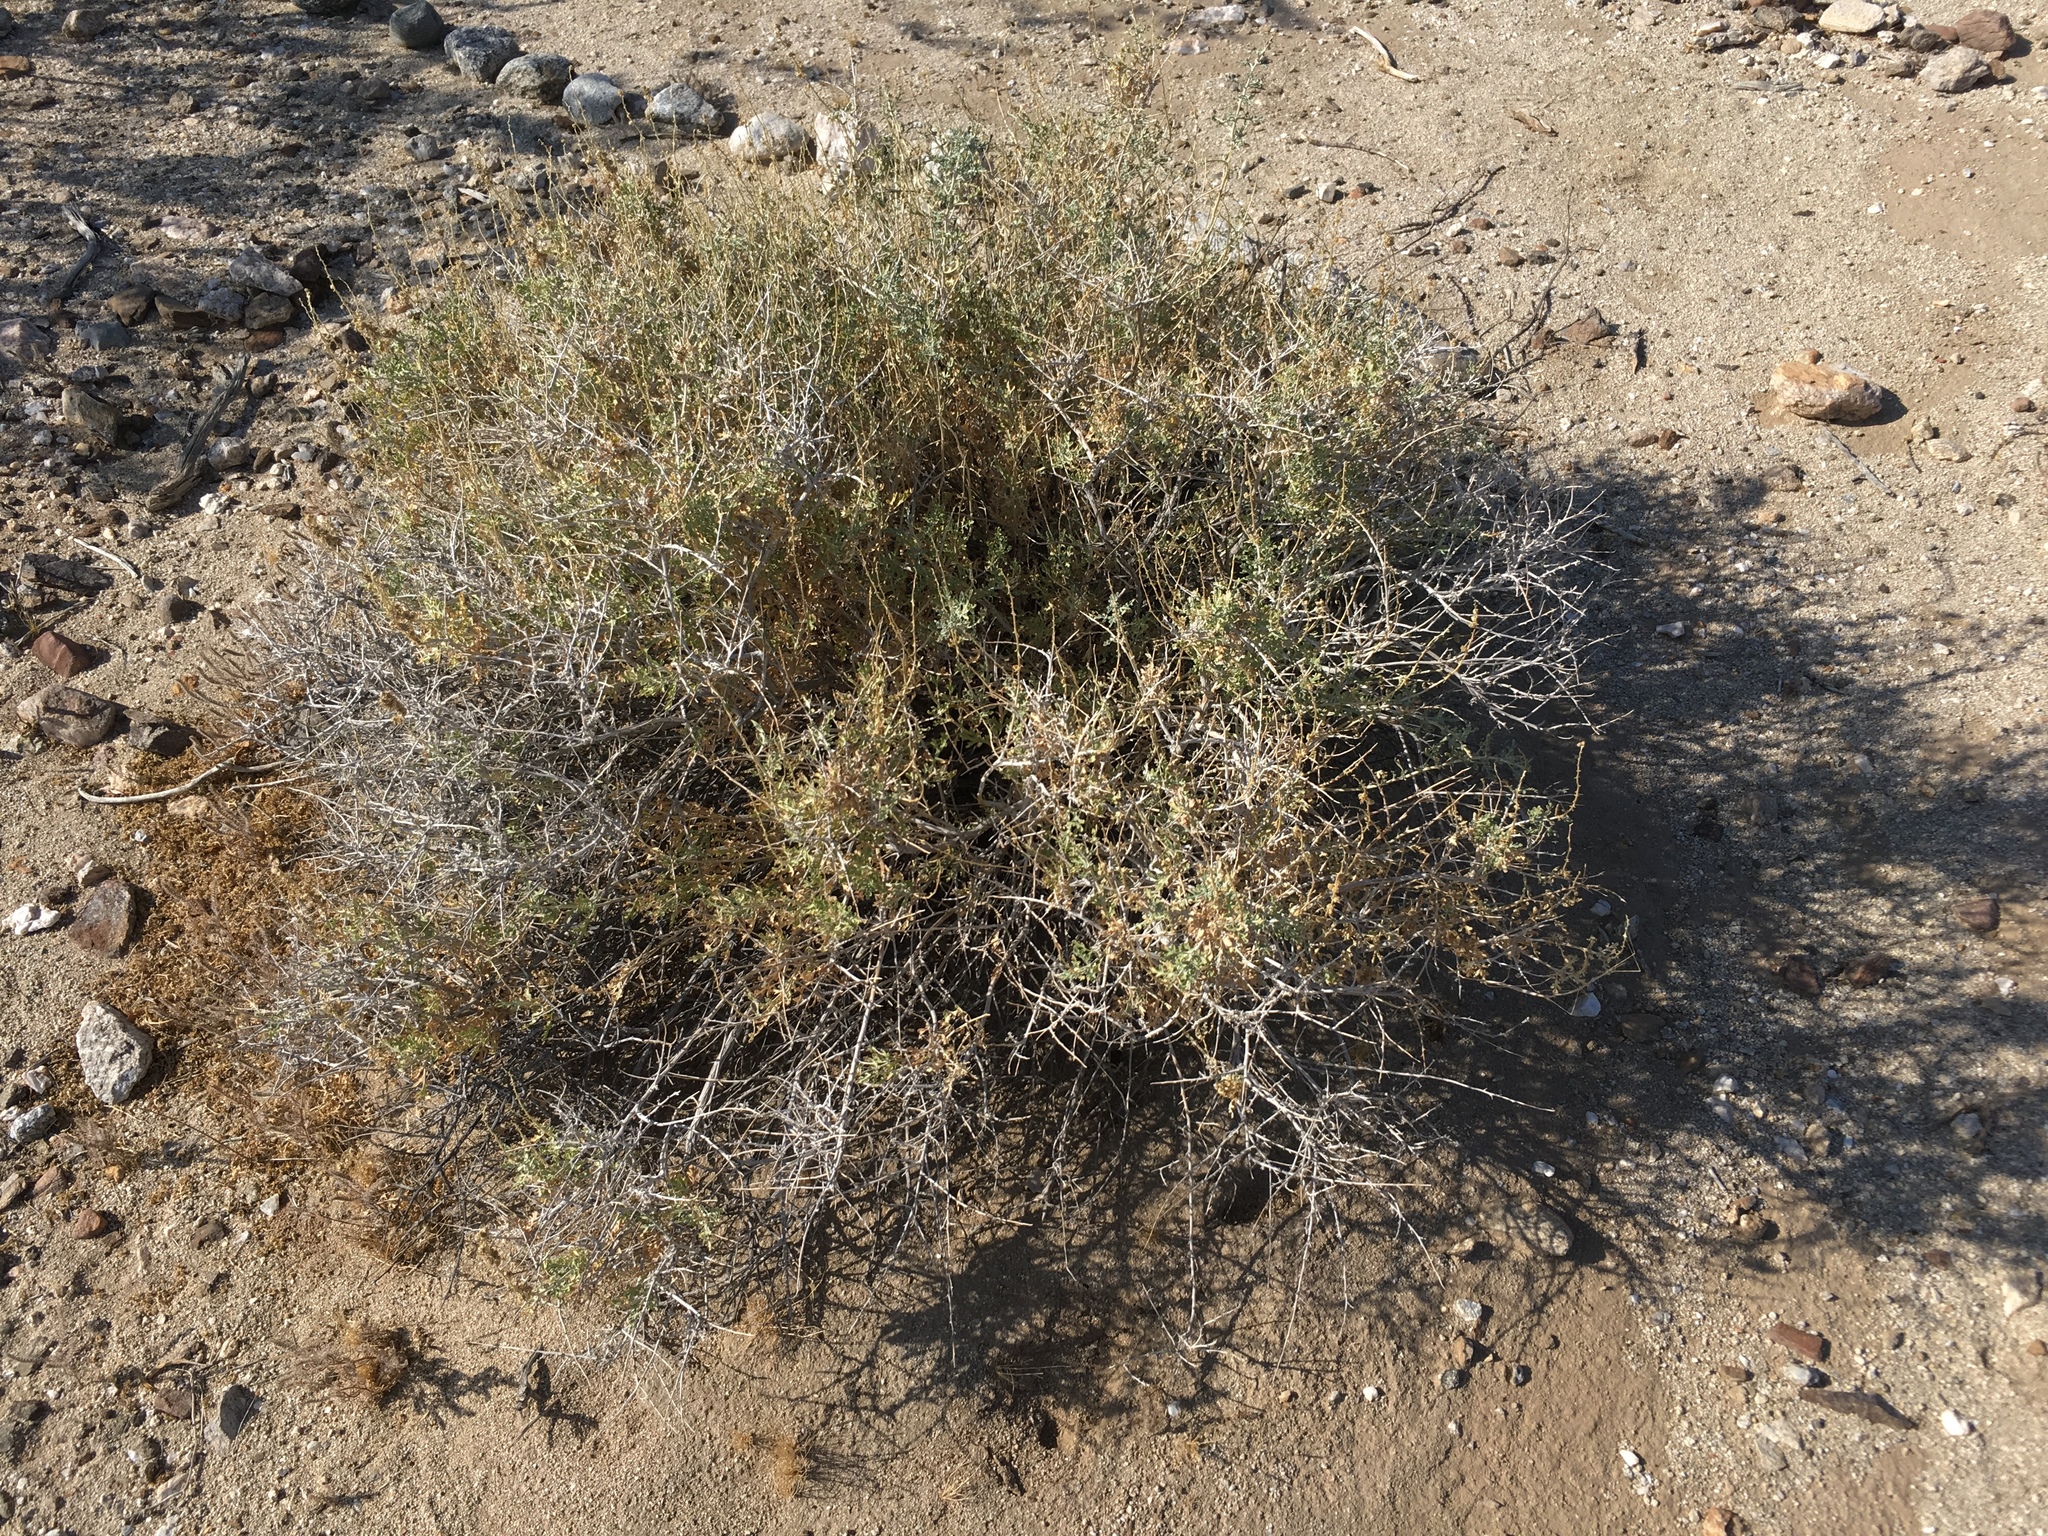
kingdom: Plantae
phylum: Tracheophyta
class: Magnoliopsida
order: Asterales
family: Asteraceae
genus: Ambrosia
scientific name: Ambrosia dumosa
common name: Bur-sage
